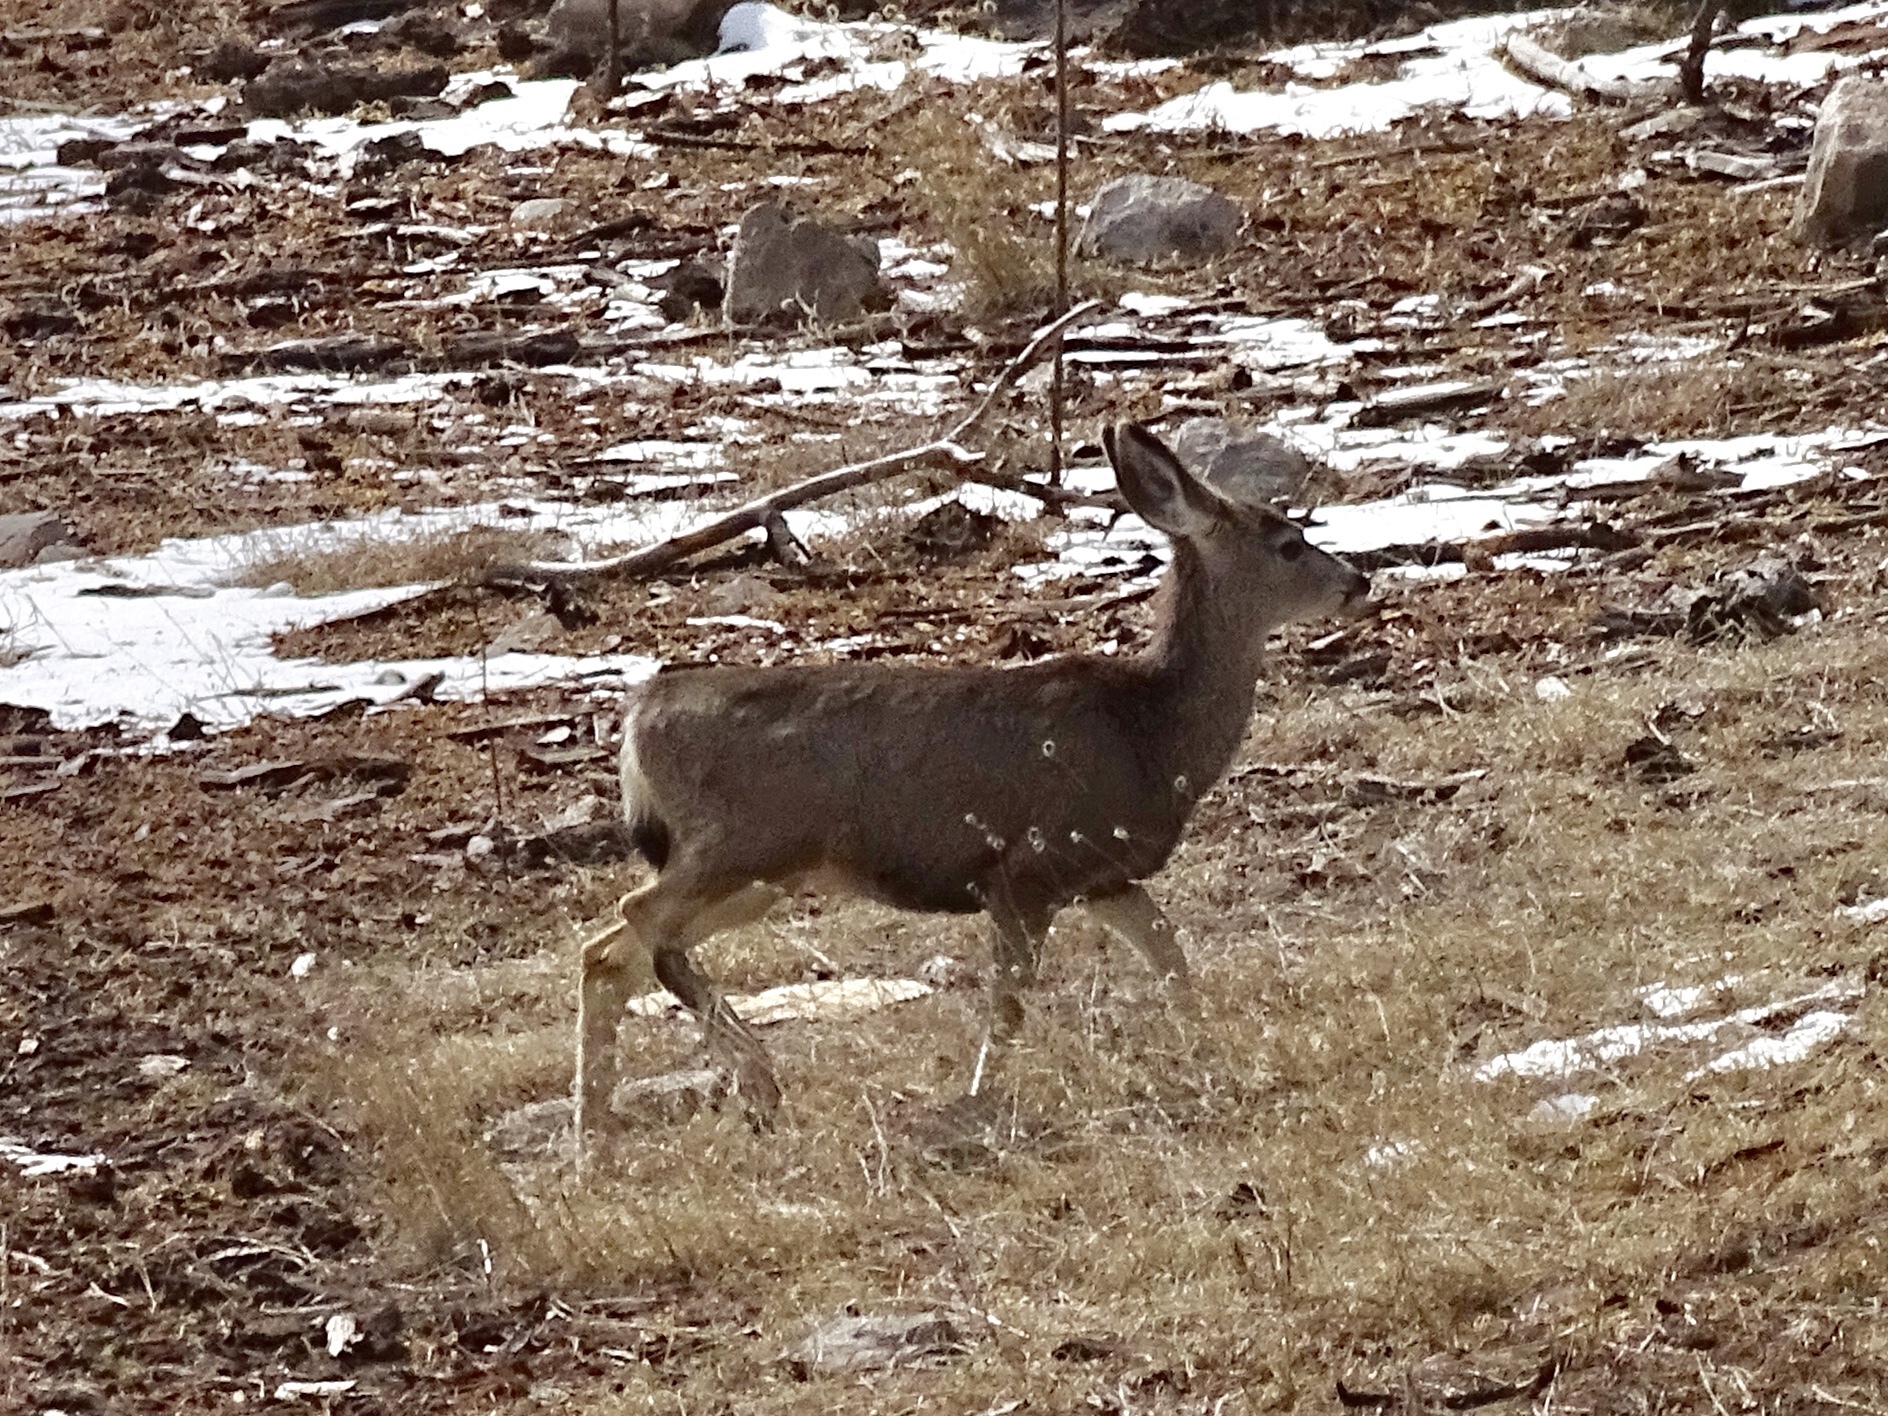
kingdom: Animalia
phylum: Chordata
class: Mammalia
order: Artiodactyla
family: Cervidae
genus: Odocoileus
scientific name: Odocoileus hemionus
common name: Mule deer
